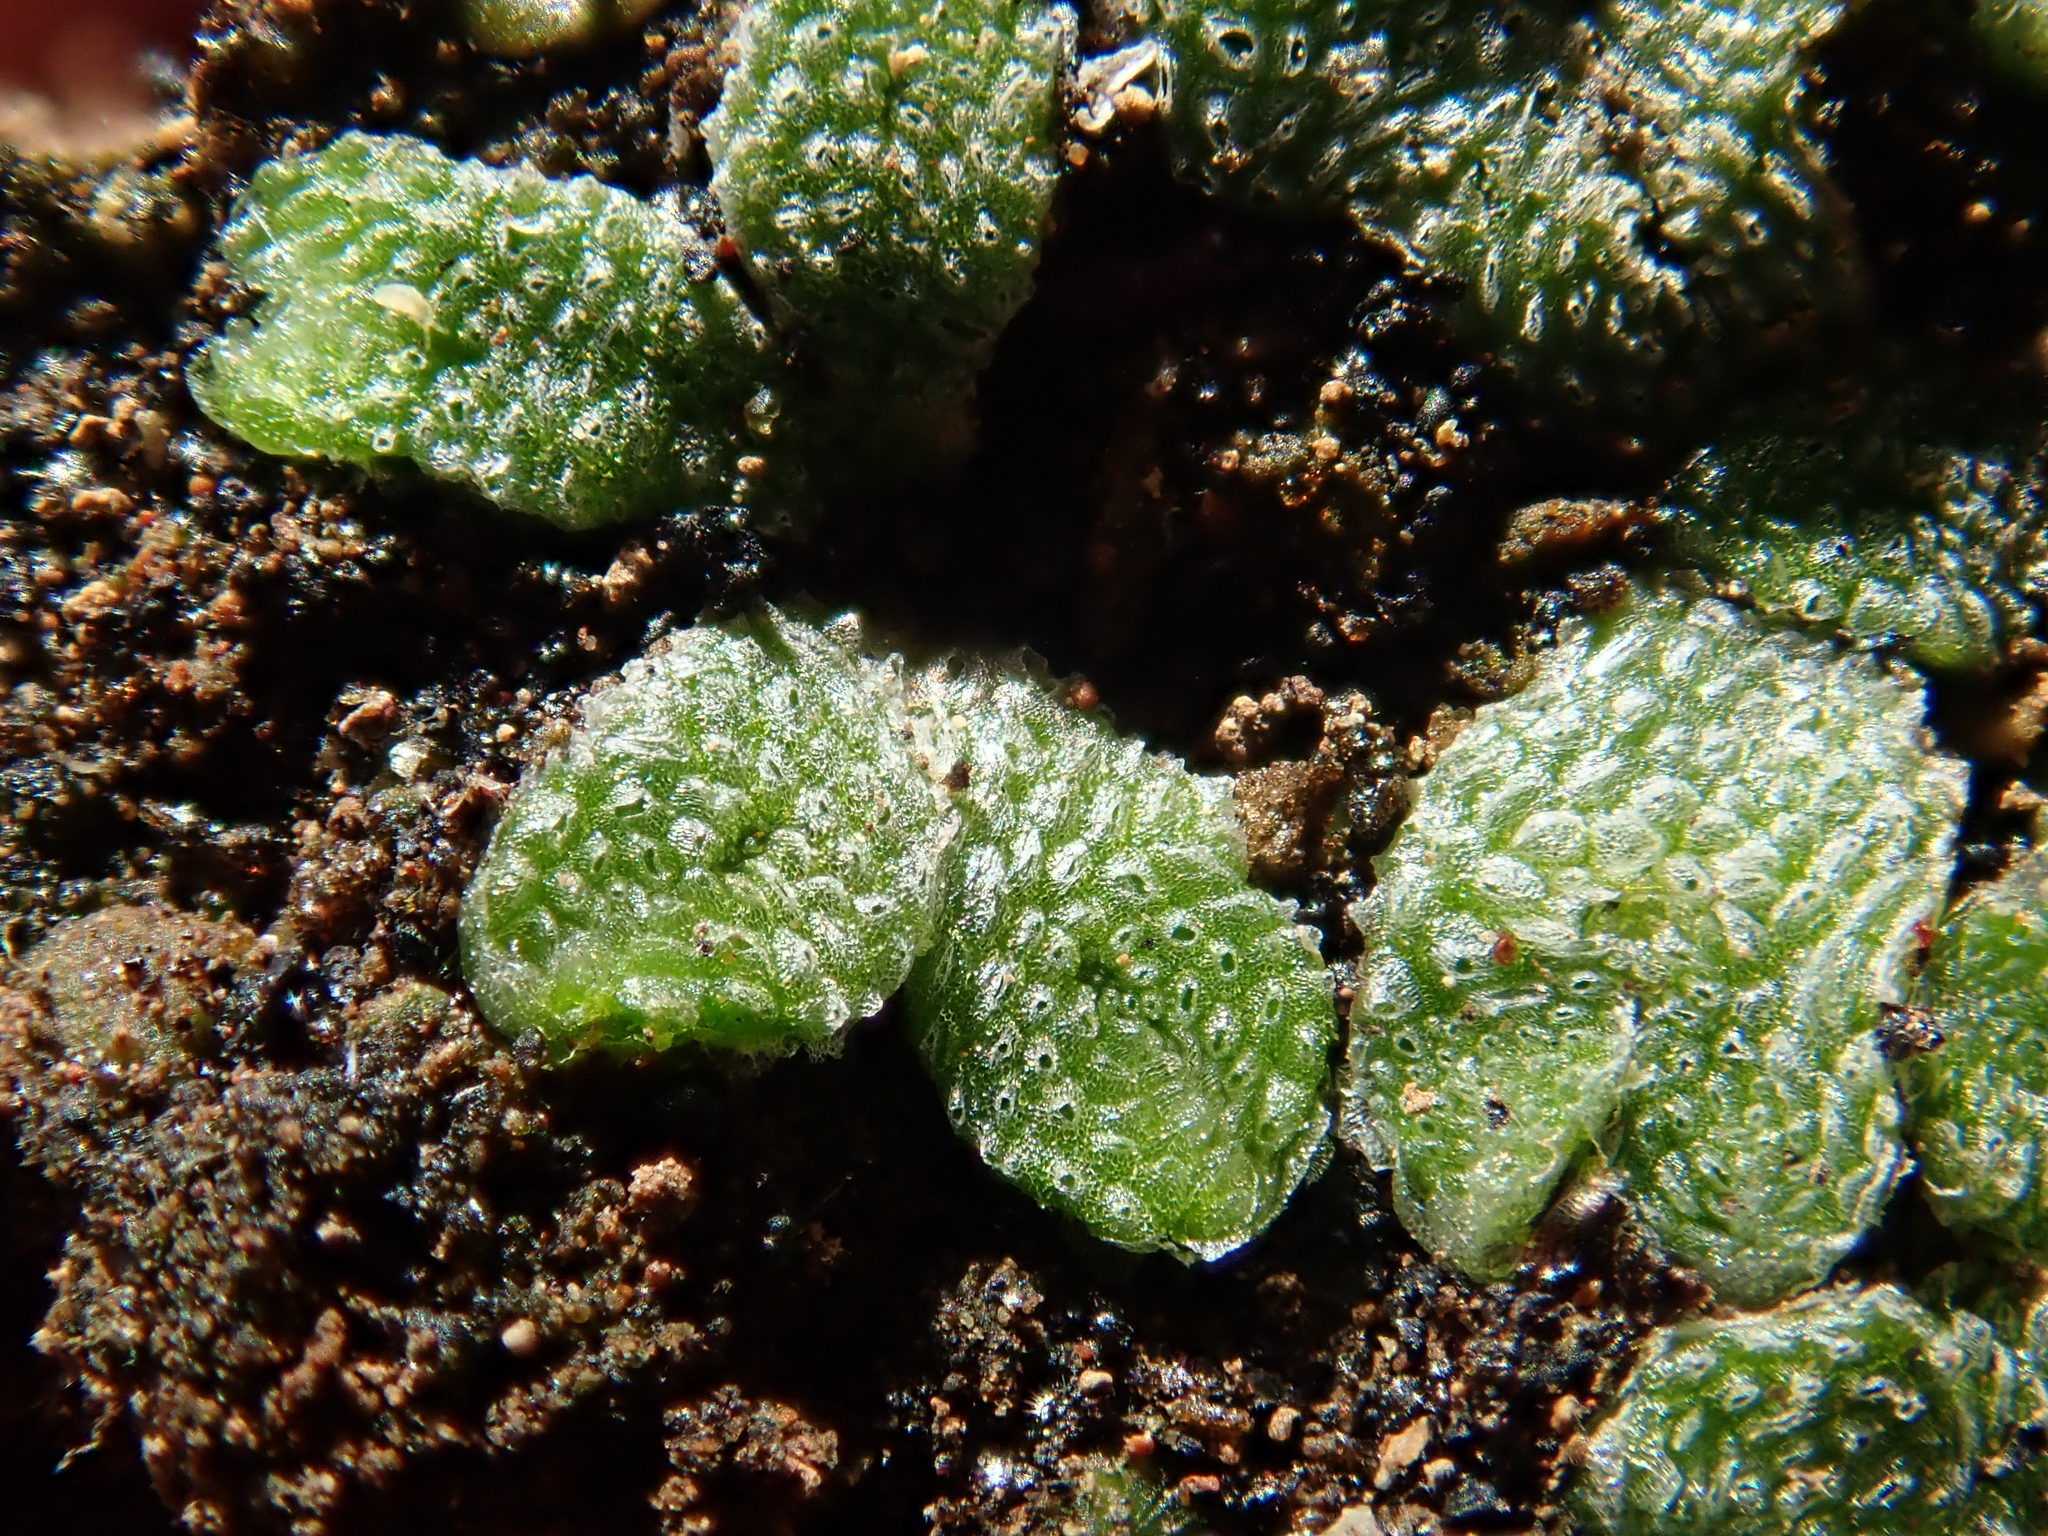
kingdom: Plantae
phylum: Marchantiophyta
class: Marchantiopsida
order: Marchantiales
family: Corsiniaceae
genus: Exormotheca
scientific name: Exormotheca pustulosa
